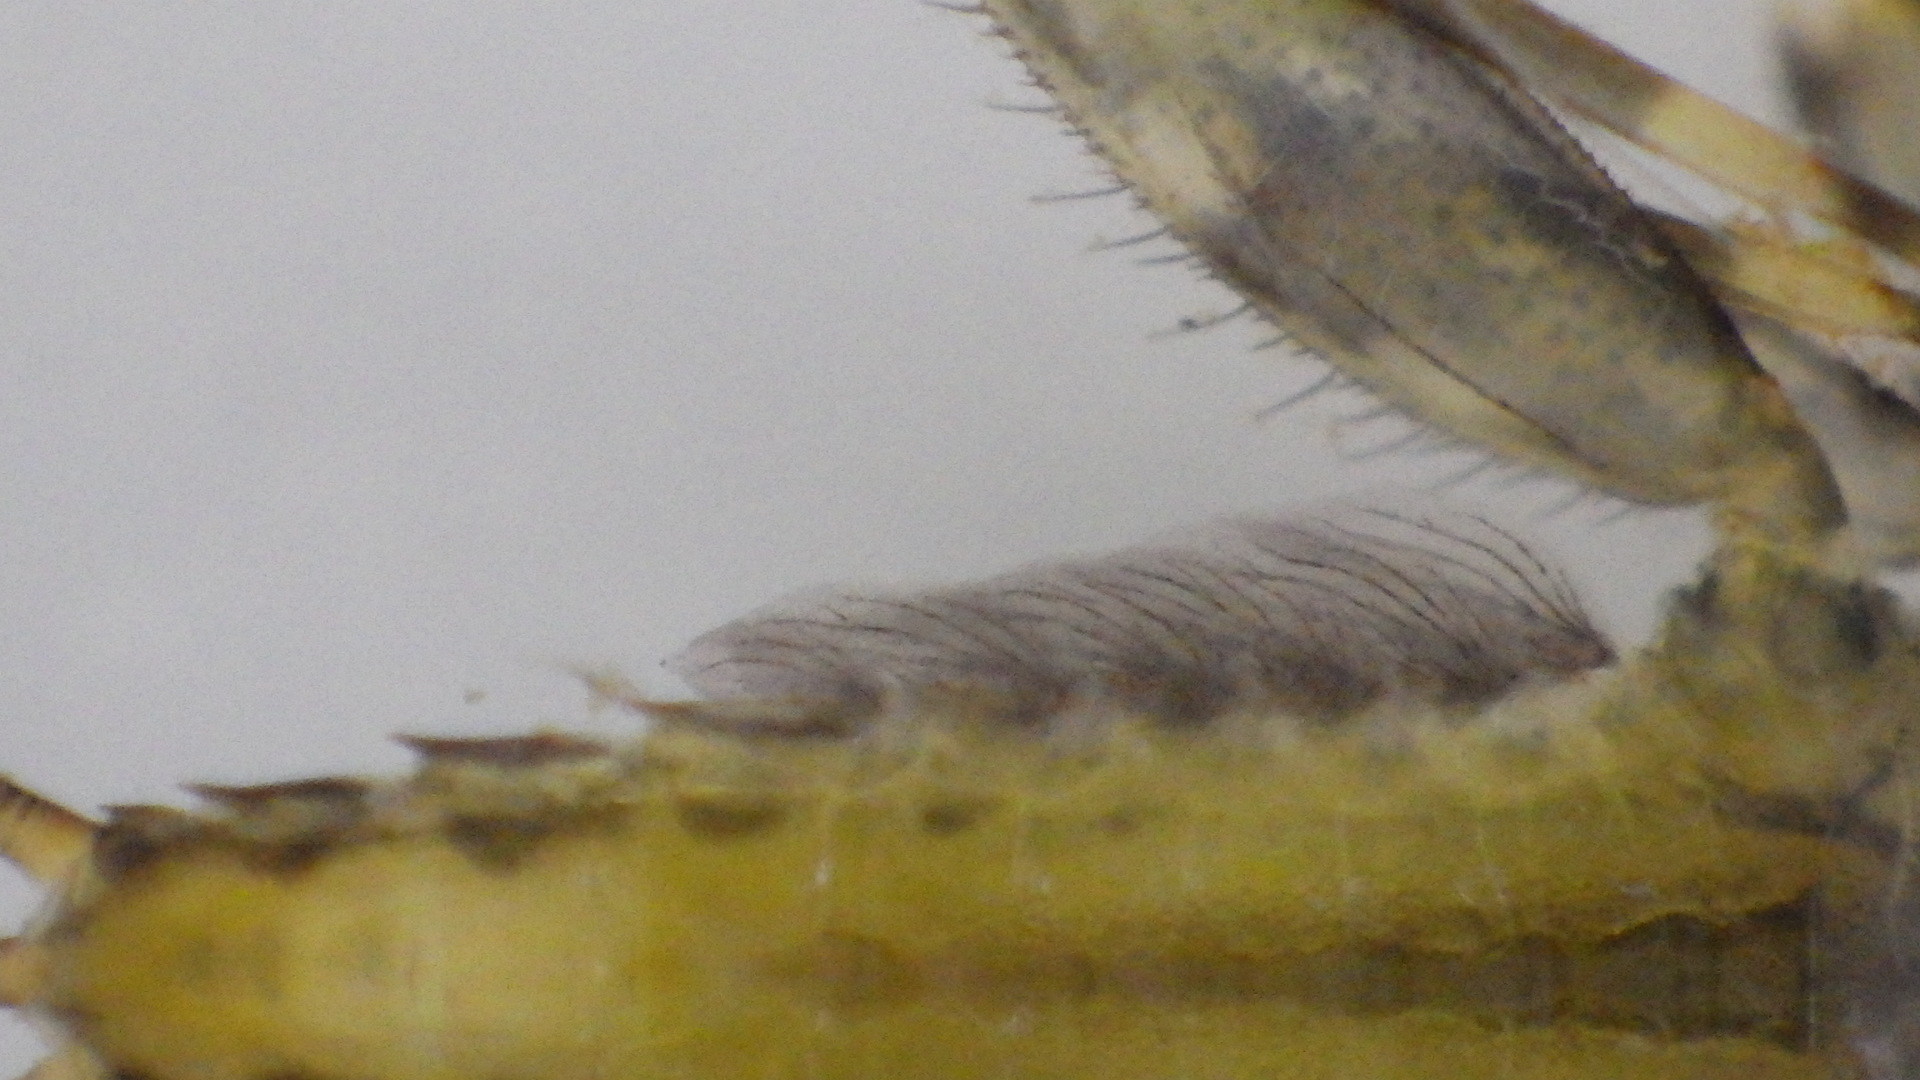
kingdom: Animalia
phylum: Arthropoda
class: Insecta
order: Ephemeroptera
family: Heptageniidae
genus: Stenonema
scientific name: Stenonema femoratum
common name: Dark cahill
